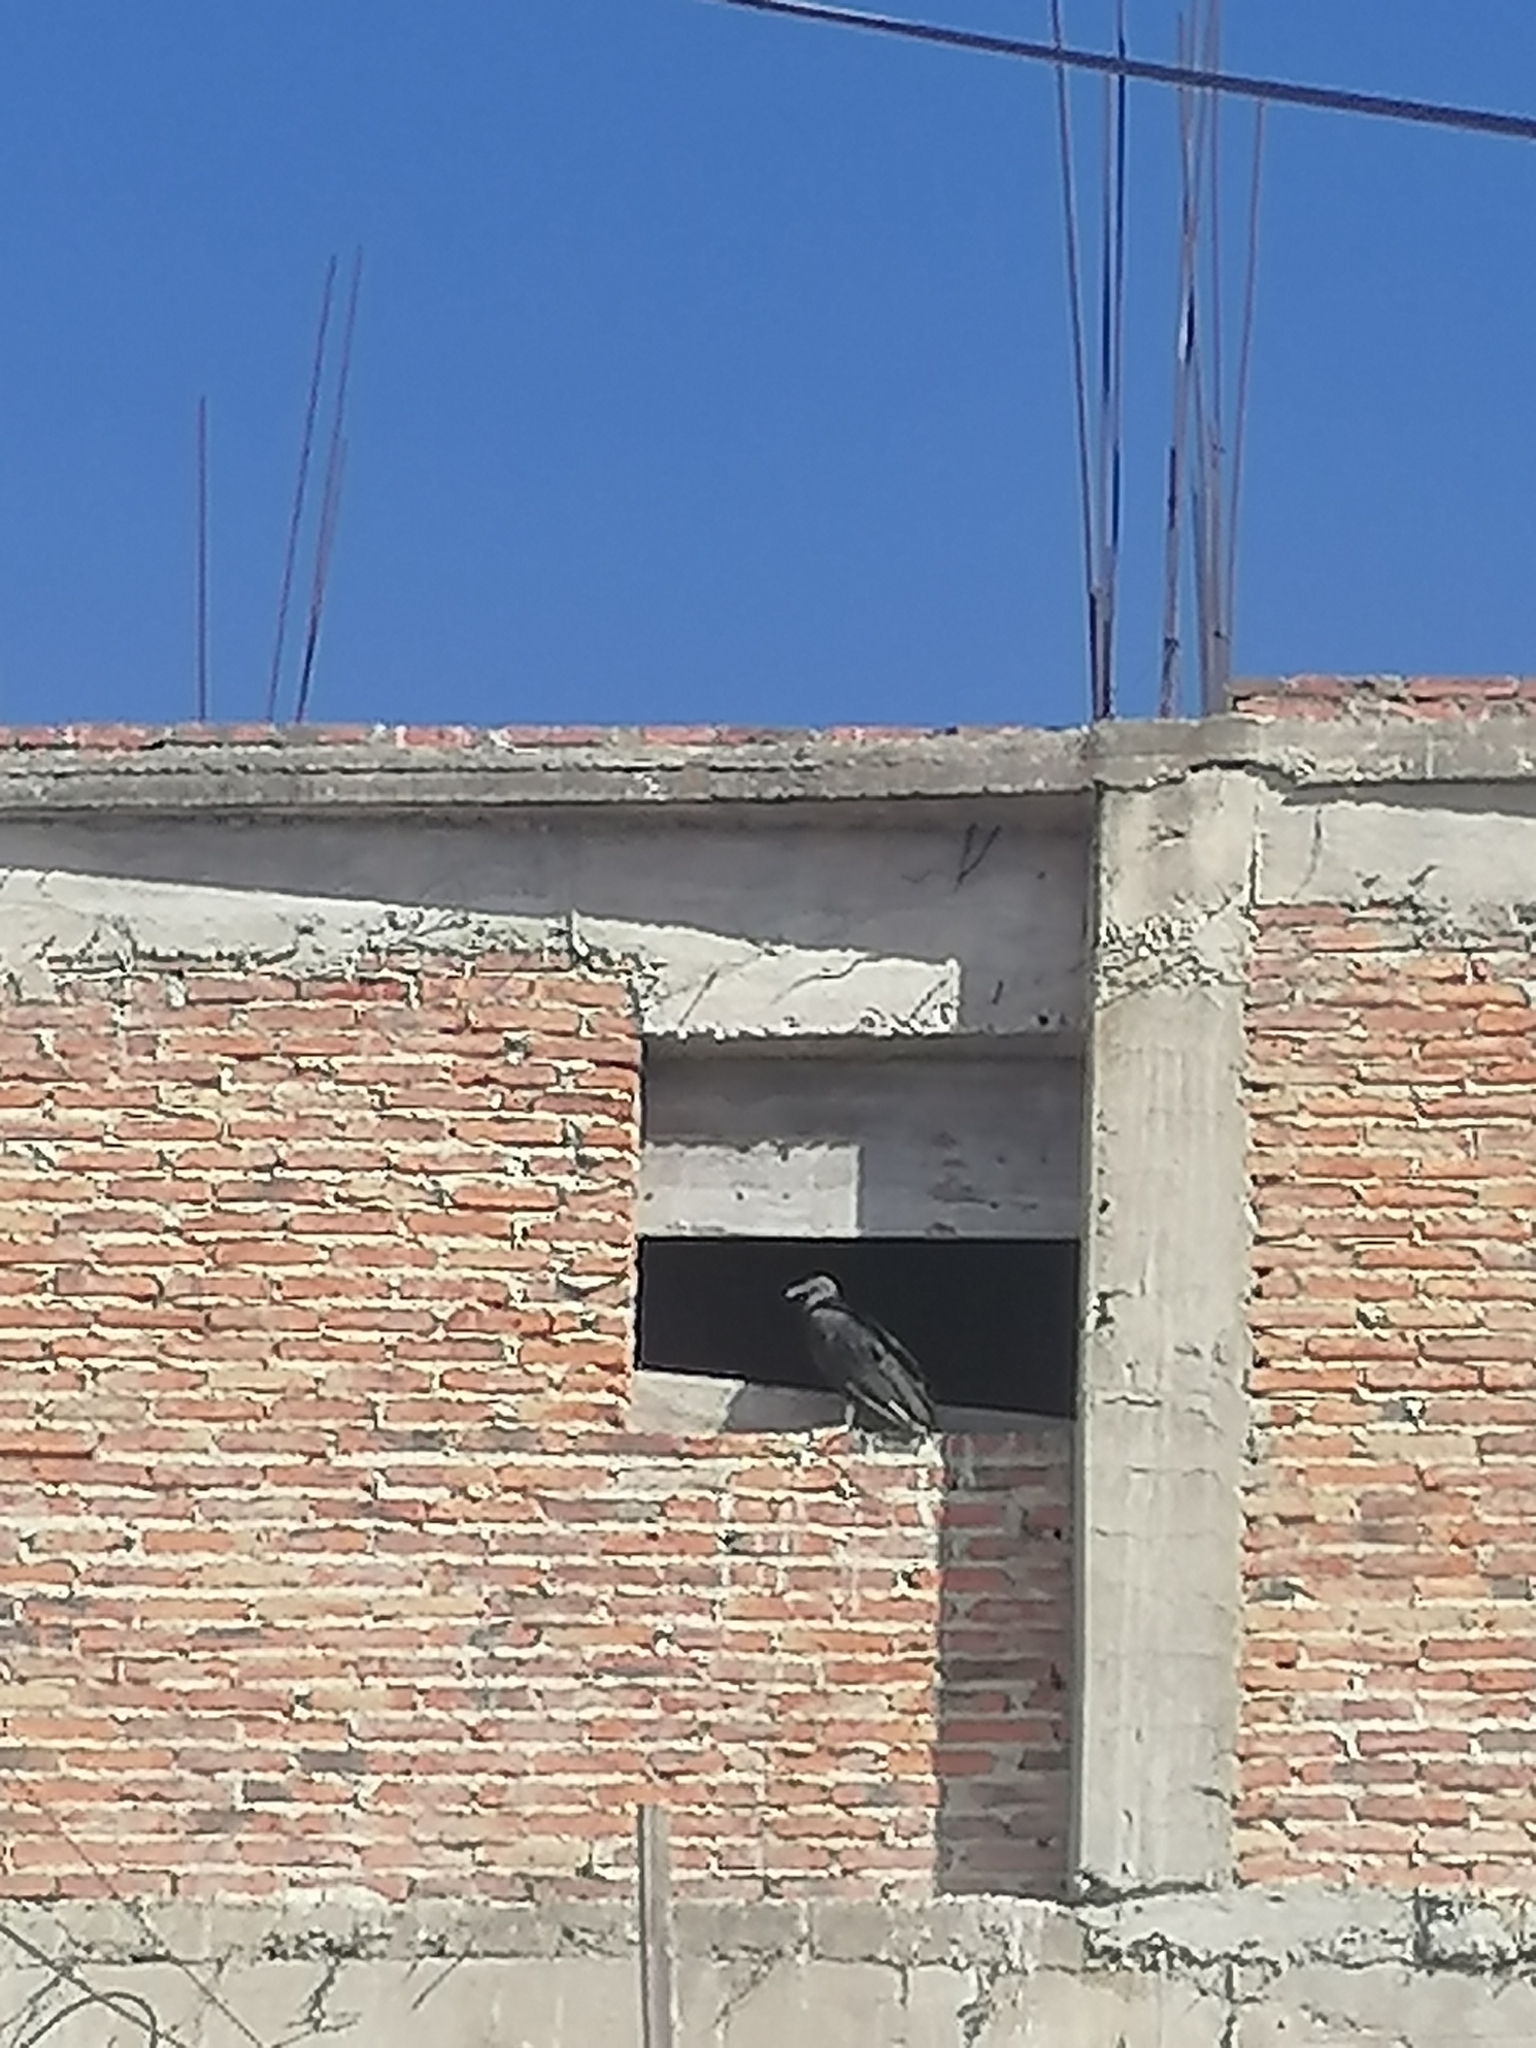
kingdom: Animalia
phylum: Chordata
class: Aves
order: Accipitriformes
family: Cathartidae
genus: Coragyps
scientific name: Coragyps atratus
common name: Black vulture
